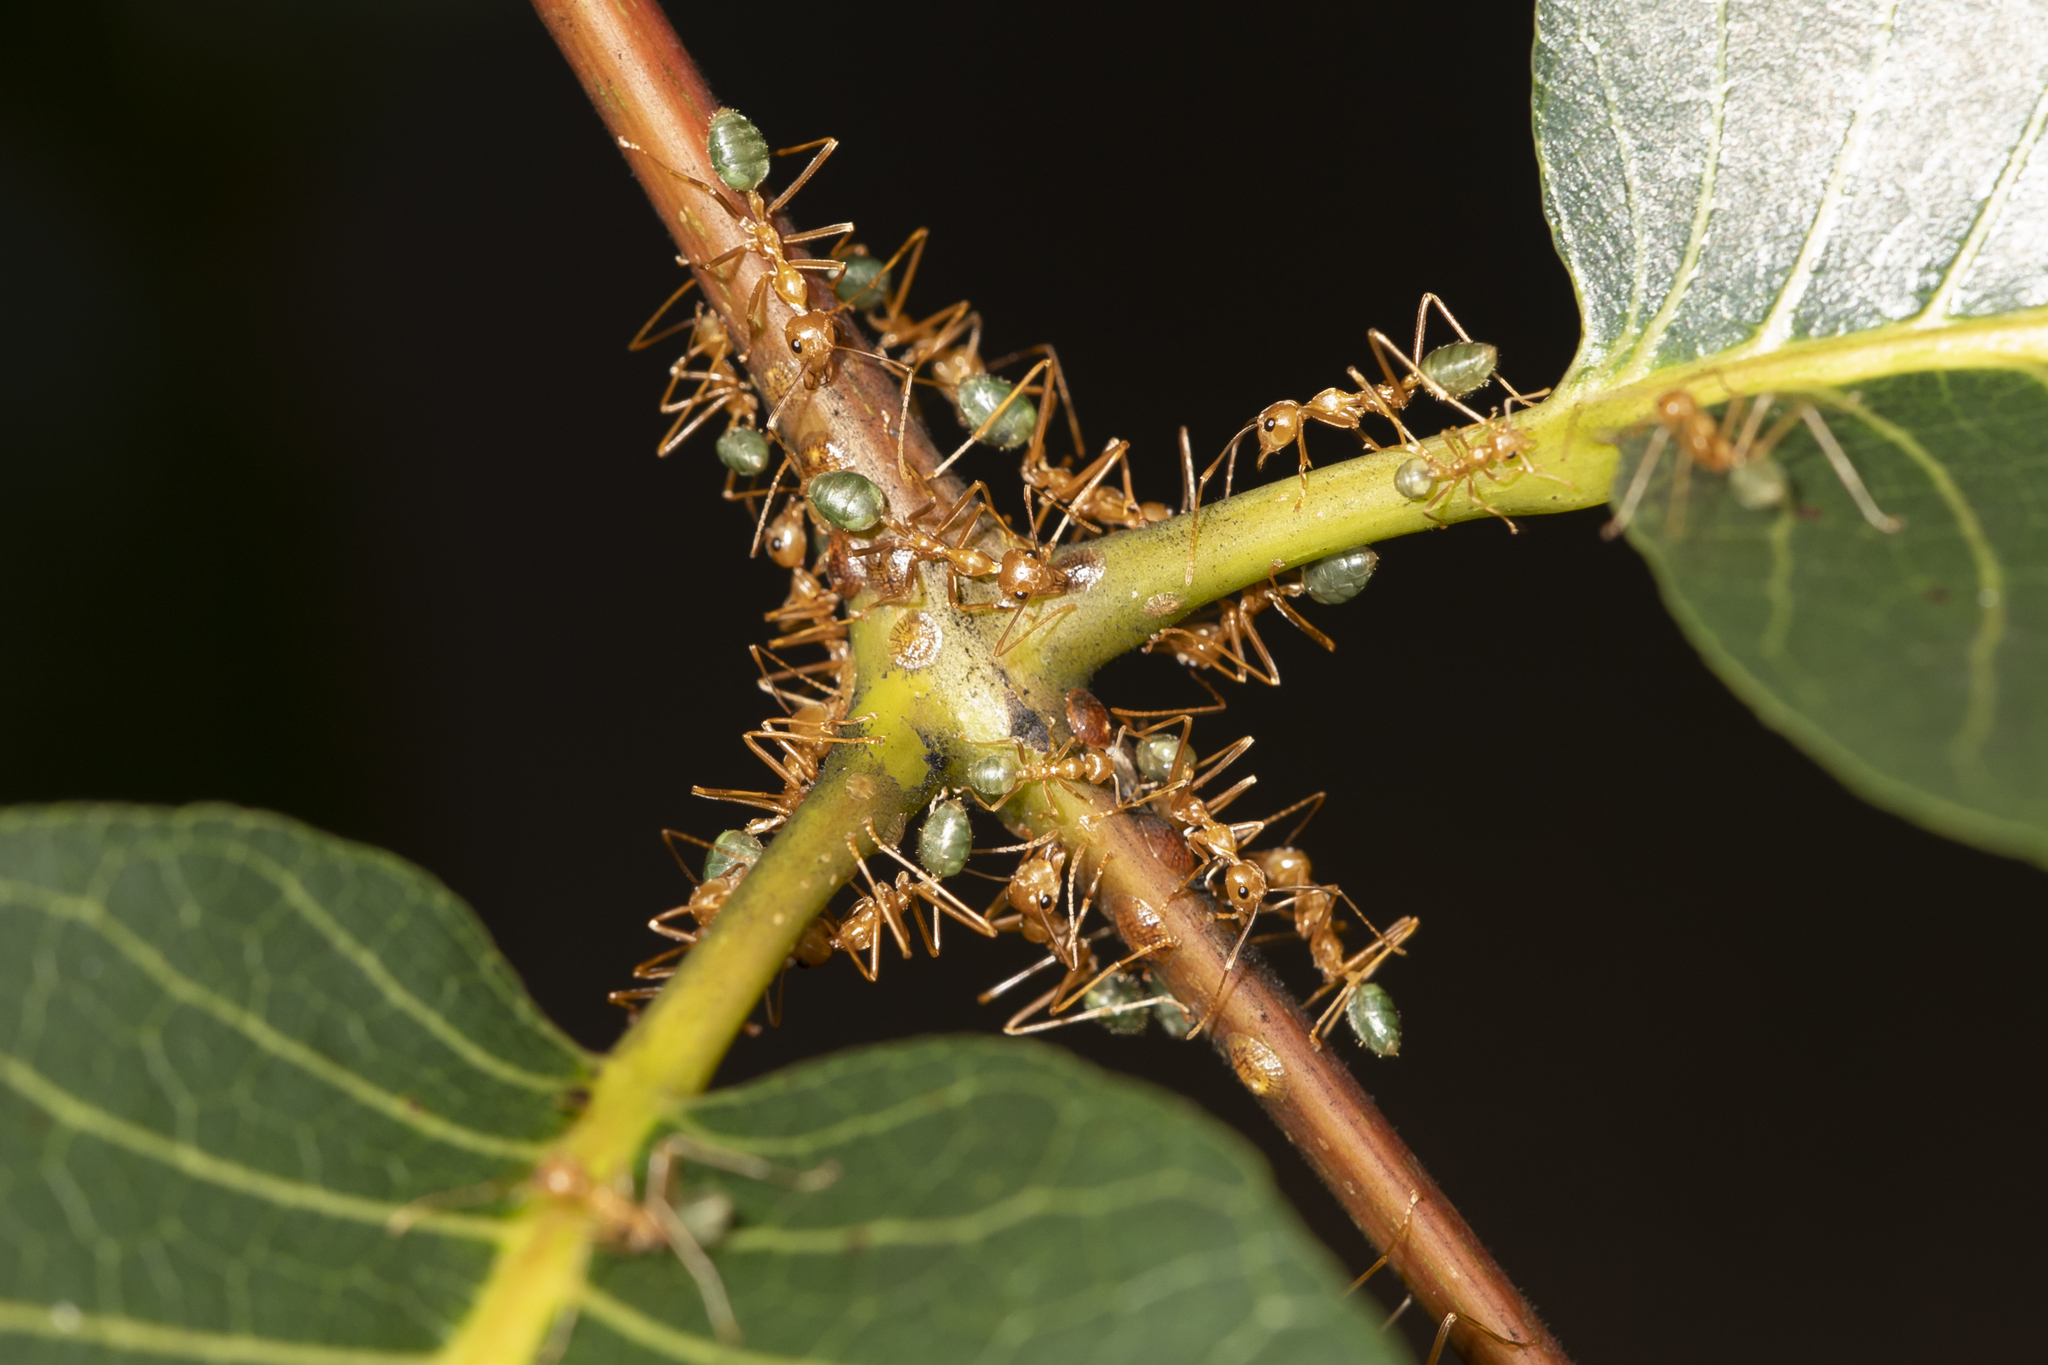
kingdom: Animalia
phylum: Arthropoda
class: Insecta
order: Hymenoptera
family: Formicidae
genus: Oecophylla
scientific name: Oecophylla smaragdina
